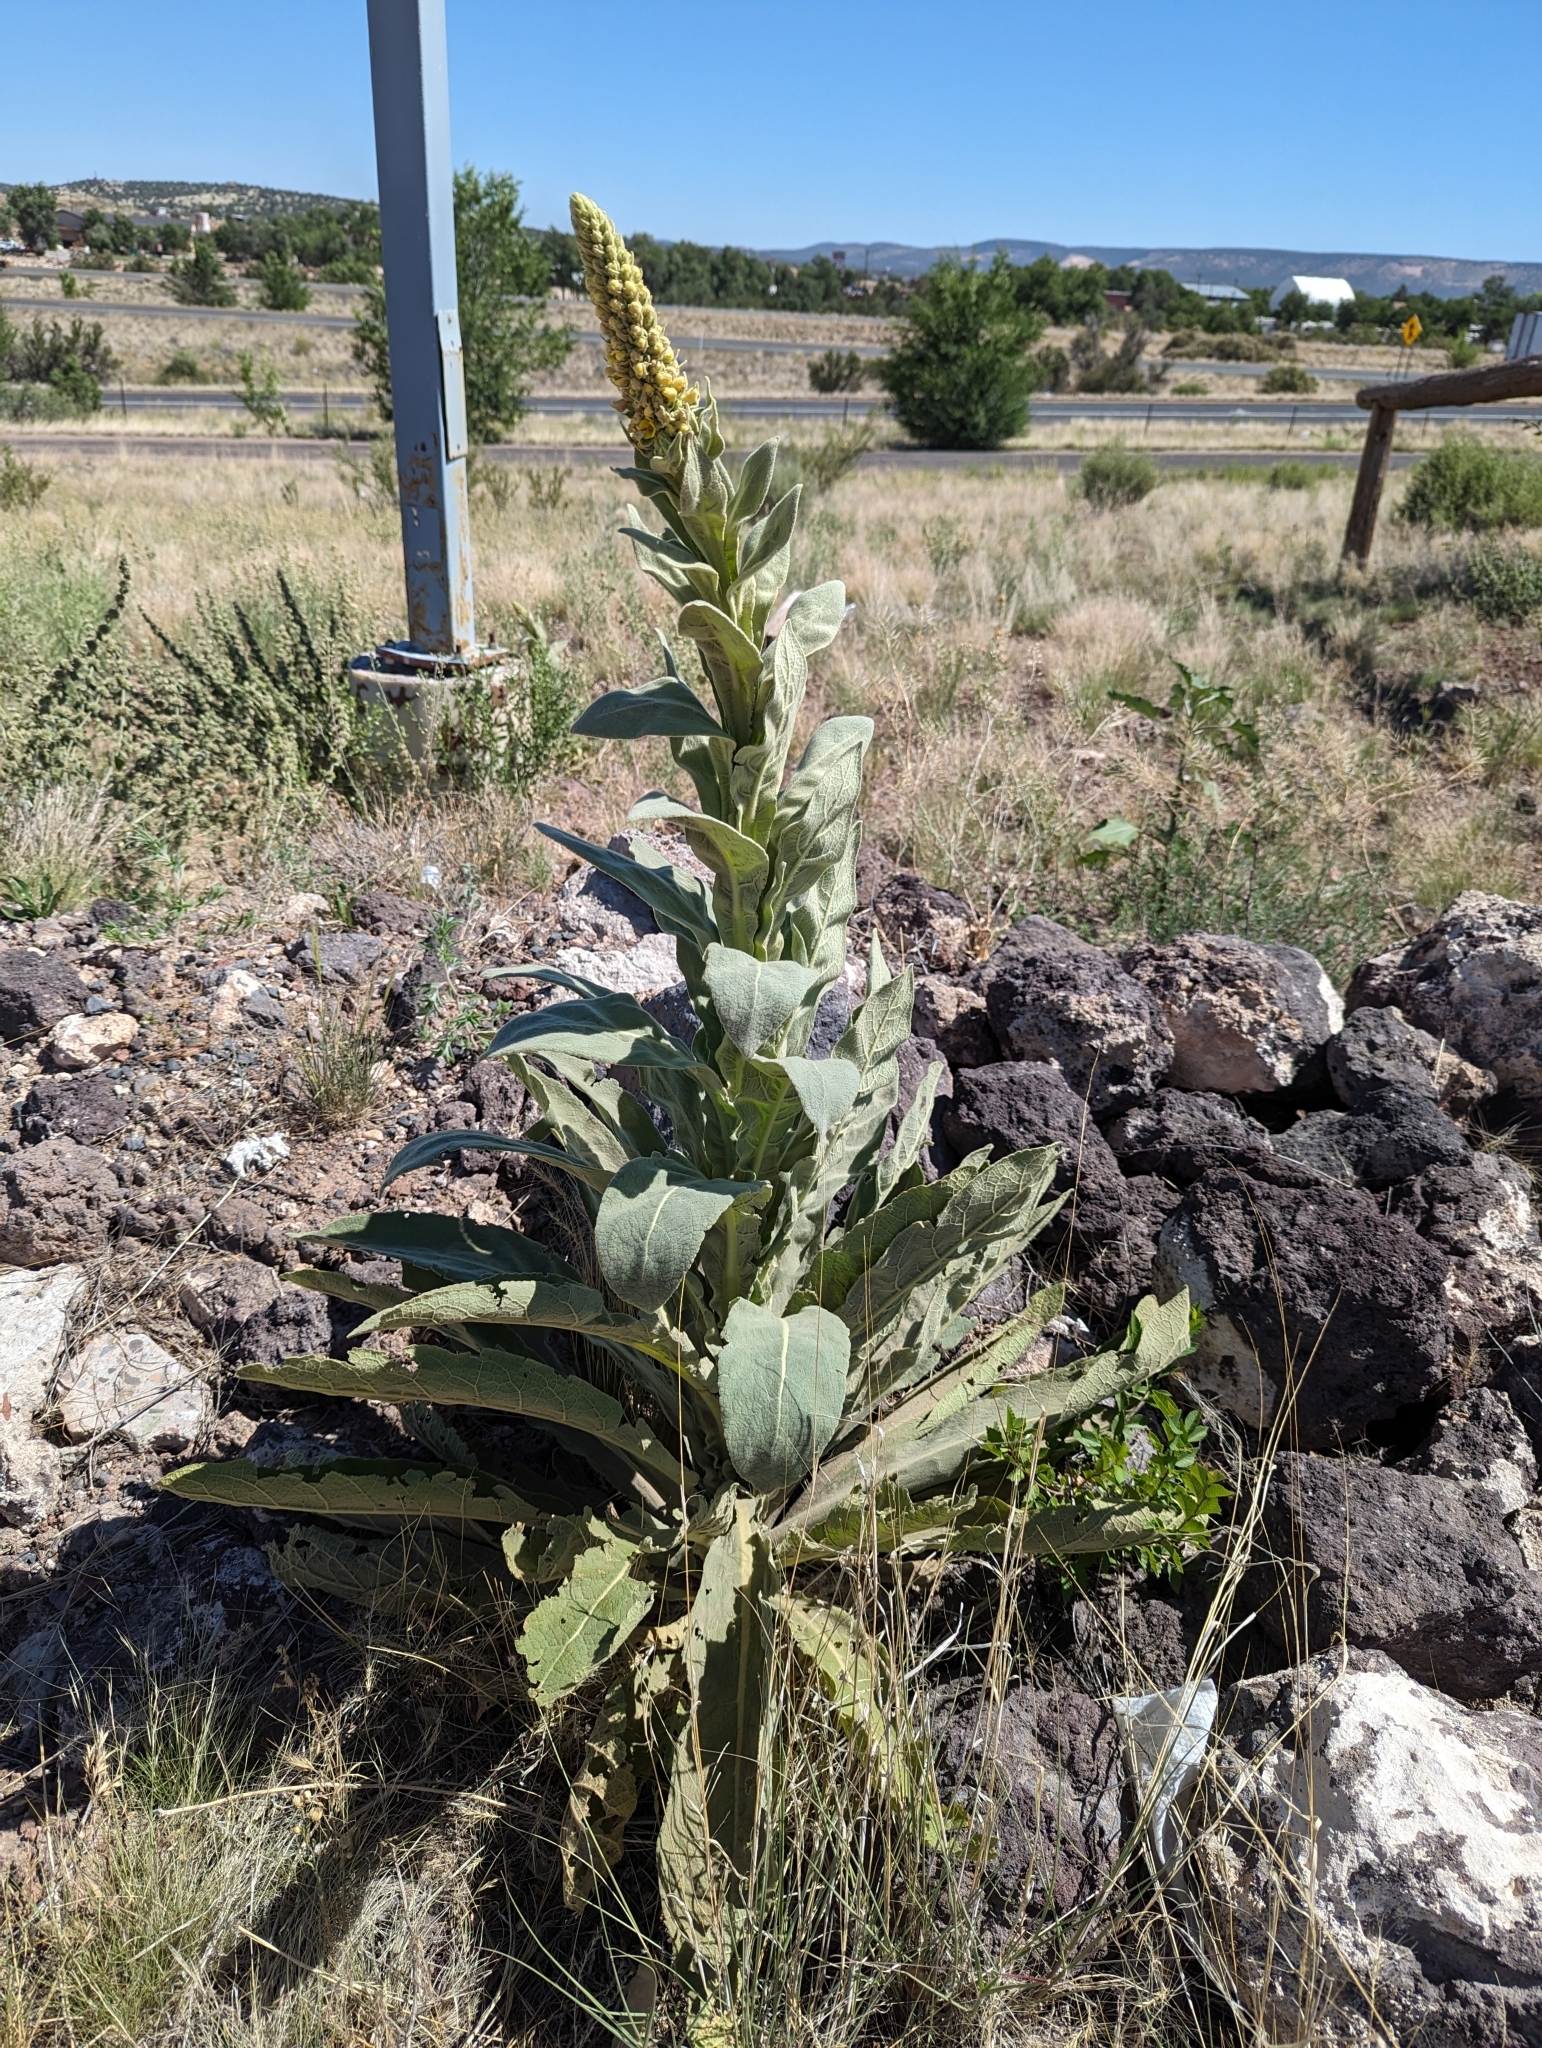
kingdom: Plantae
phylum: Tracheophyta
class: Magnoliopsida
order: Lamiales
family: Scrophulariaceae
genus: Verbascum
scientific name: Verbascum thapsus
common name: Common mullein
